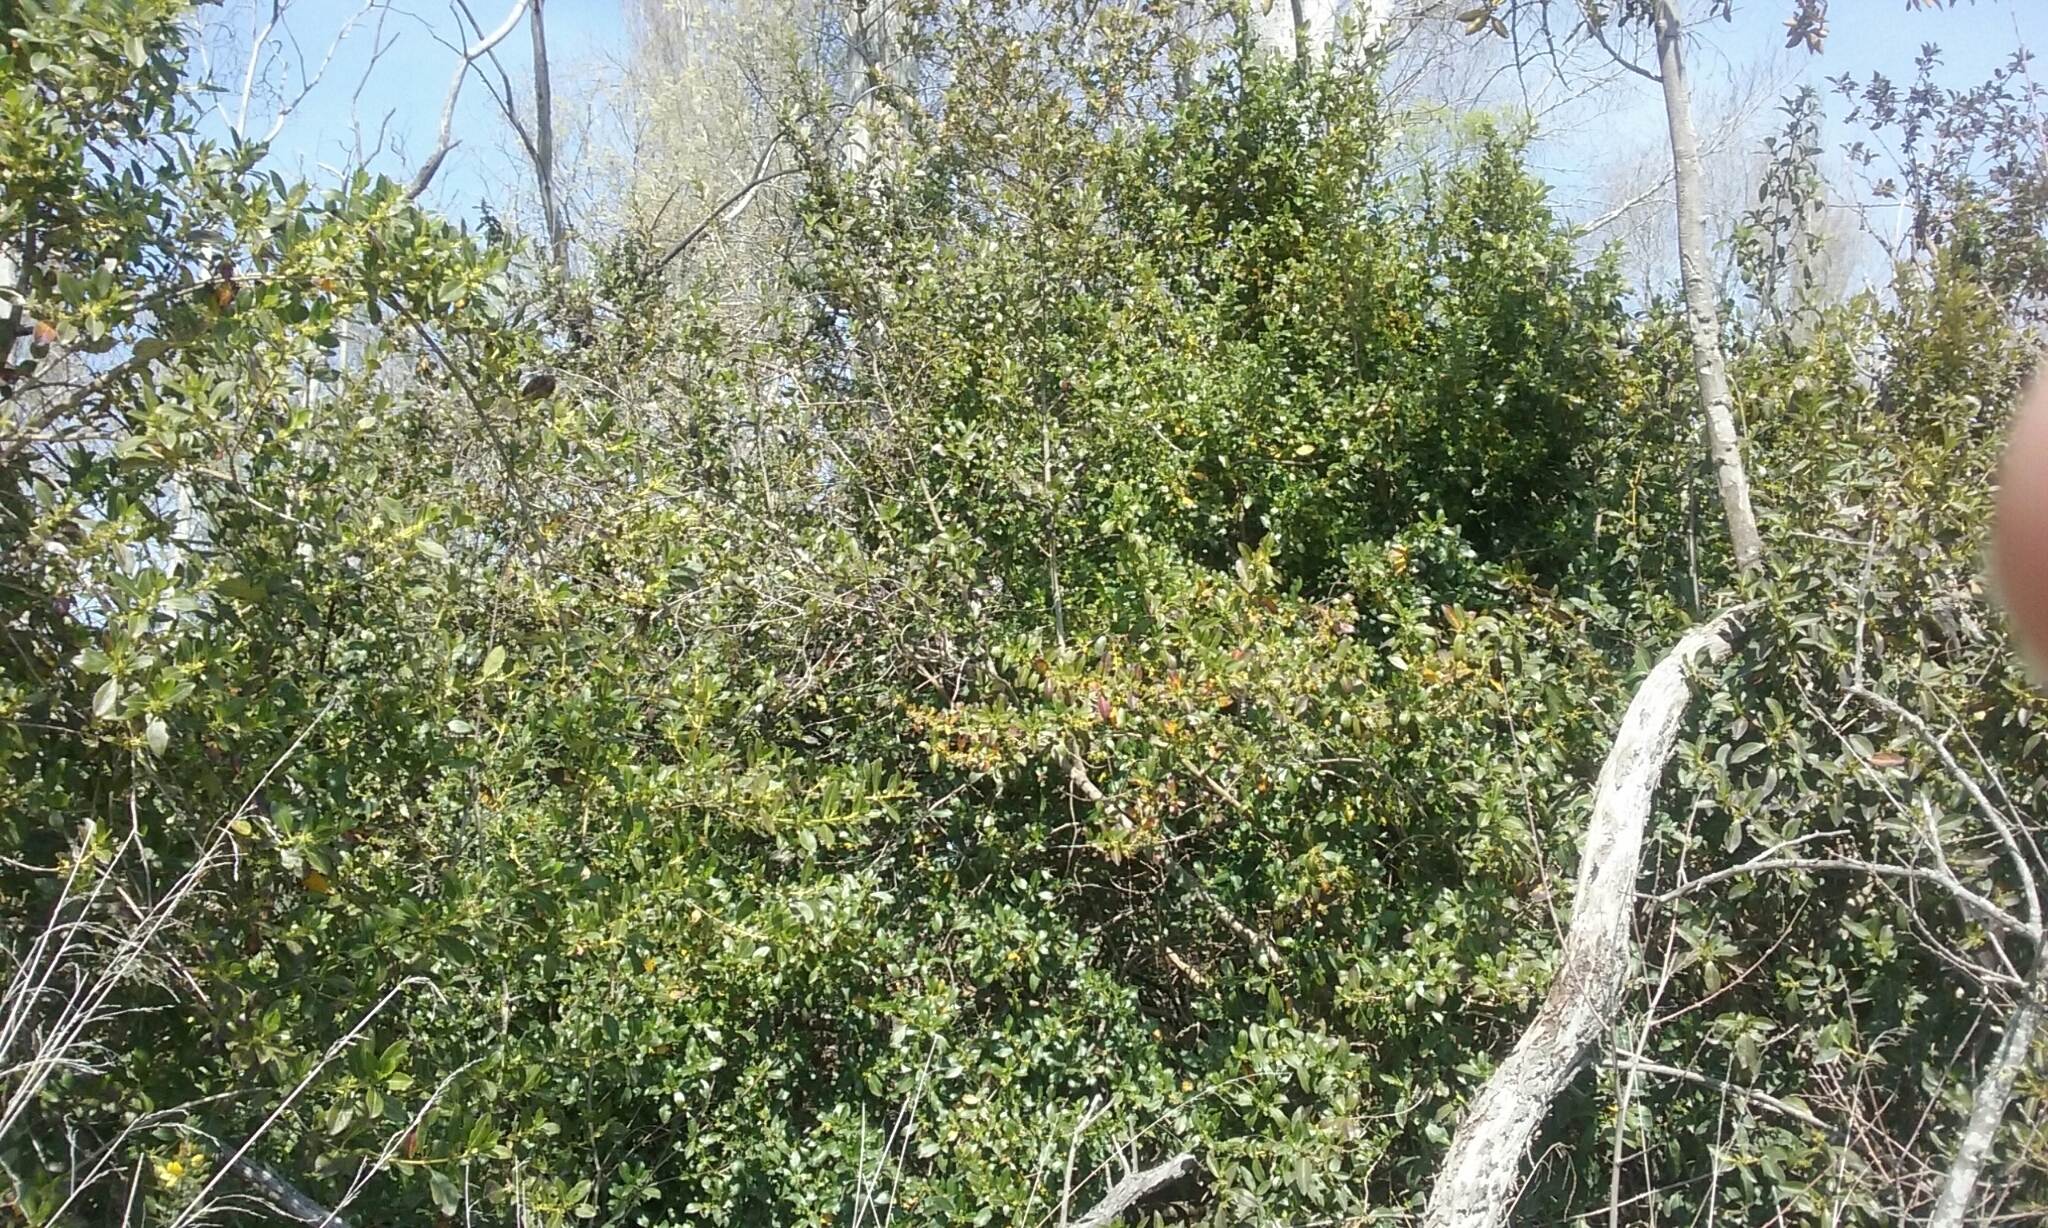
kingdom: Plantae
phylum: Tracheophyta
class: Magnoliopsida
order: Gentianales
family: Rubiaceae
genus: Coprosma
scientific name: Coprosma robusta
